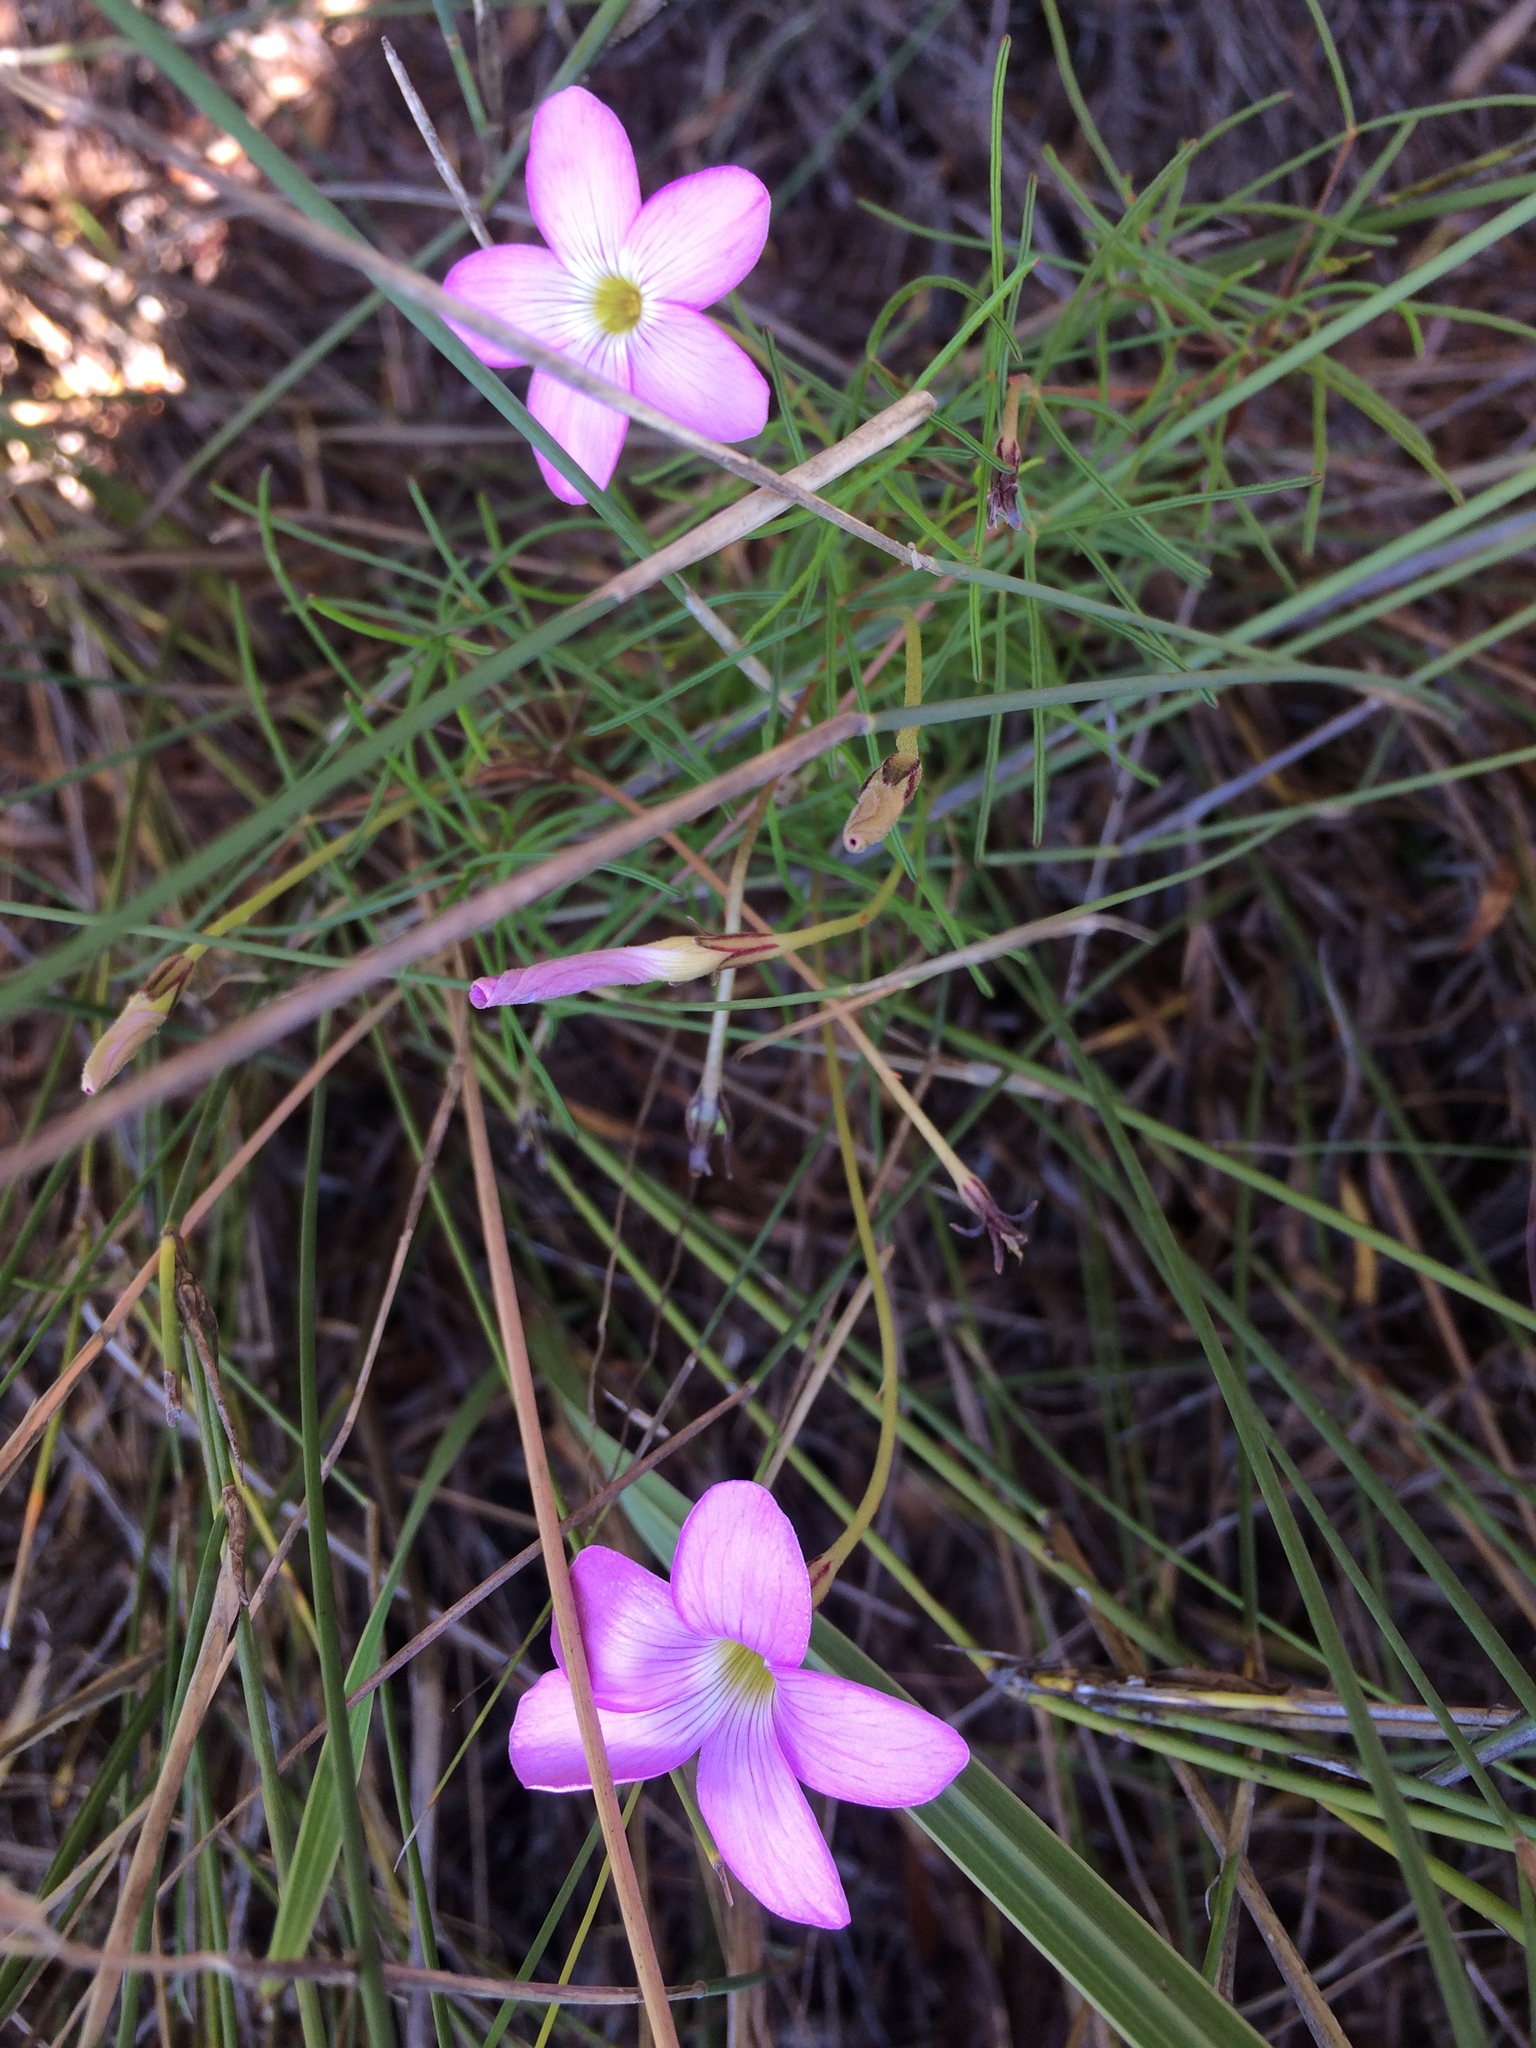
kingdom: Plantae
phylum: Tracheophyta
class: Magnoliopsida
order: Oxalidales
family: Oxalidaceae
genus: Oxalis
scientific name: Oxalis polyphylla
